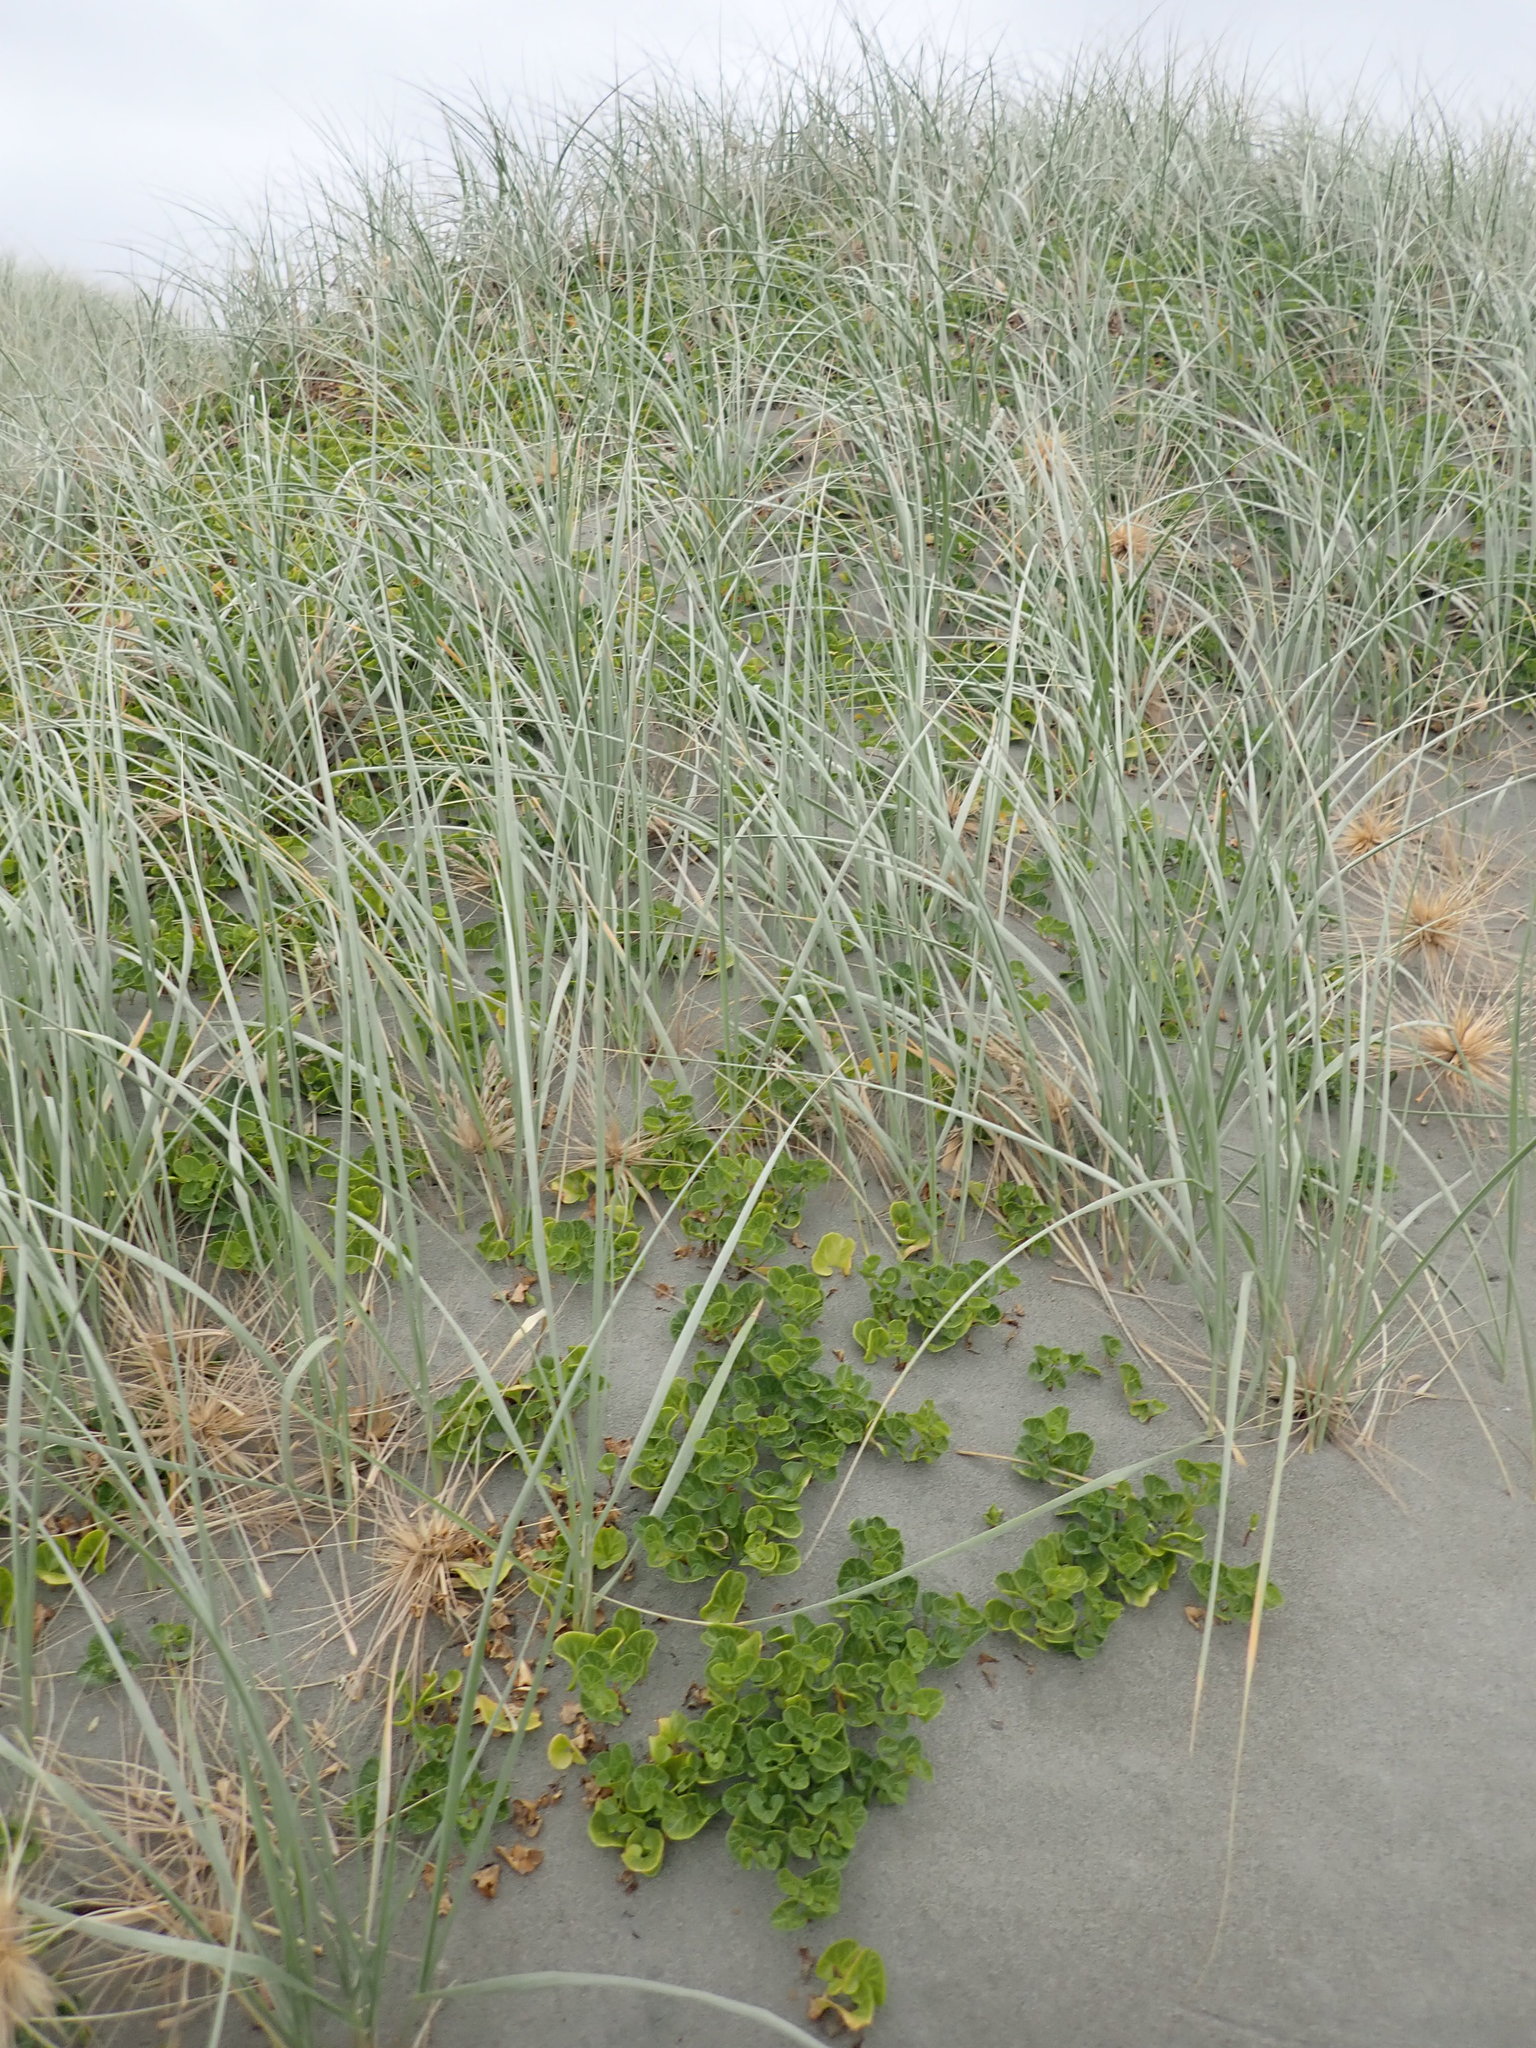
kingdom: Plantae
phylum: Tracheophyta
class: Magnoliopsida
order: Solanales
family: Convolvulaceae
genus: Calystegia
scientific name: Calystegia soldanella
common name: Sea bindweed
